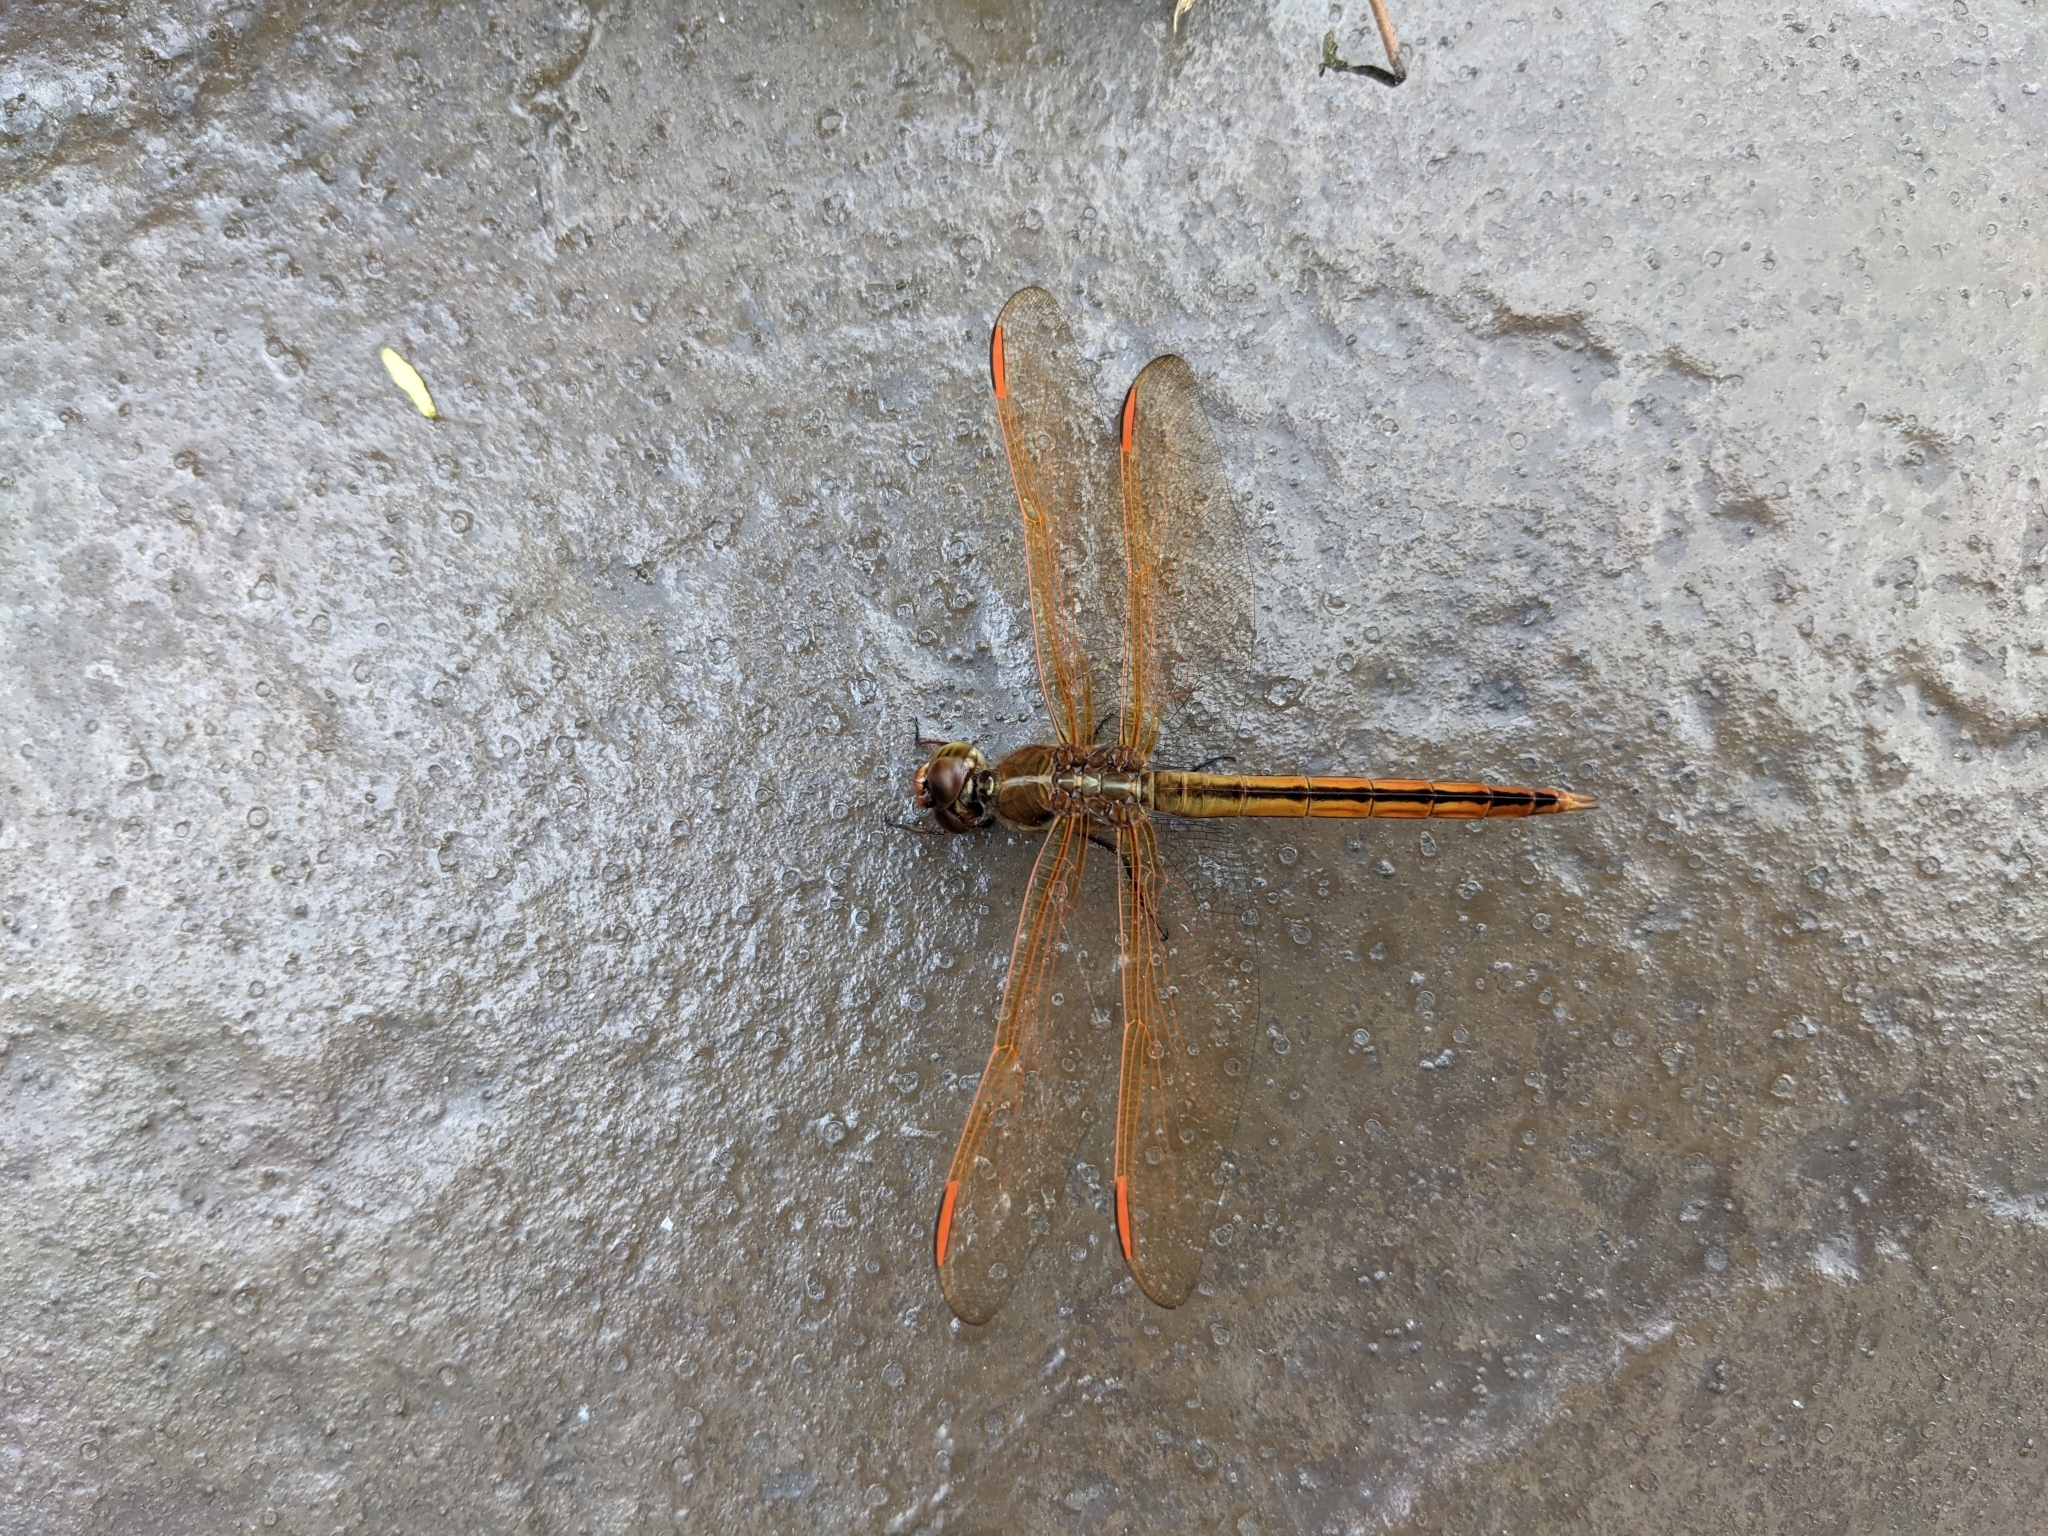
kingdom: Animalia
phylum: Arthropoda
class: Insecta
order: Odonata
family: Libellulidae
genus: Libellula
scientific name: Libellula auripennis
